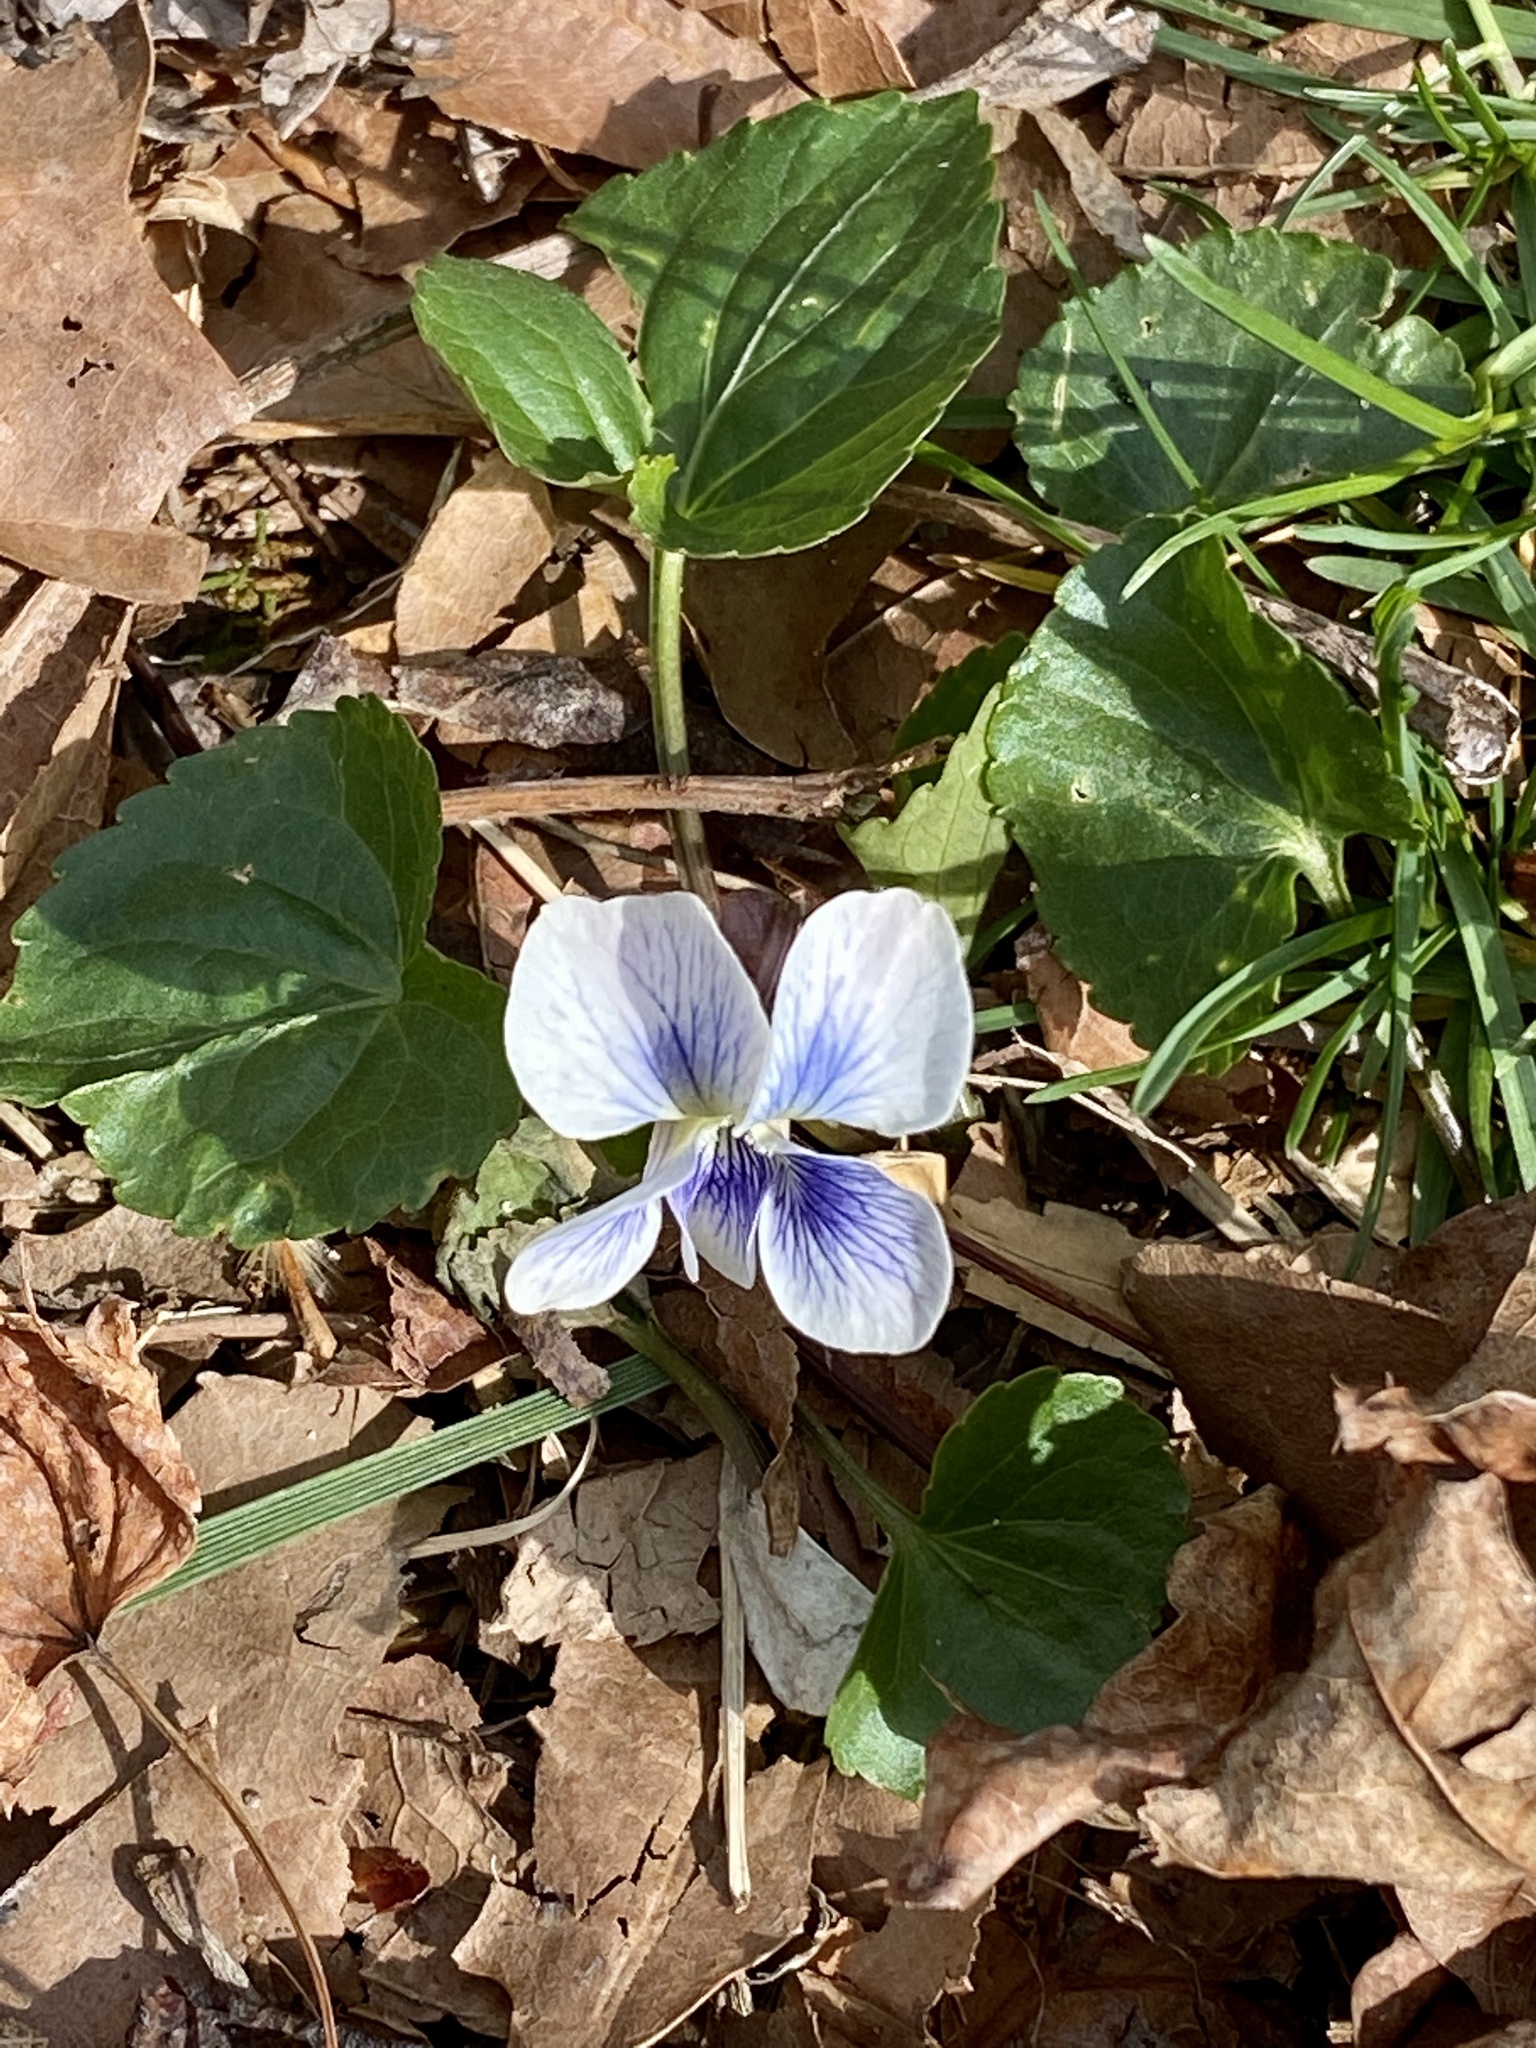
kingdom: Plantae
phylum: Tracheophyta
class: Magnoliopsida
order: Malpighiales
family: Violaceae
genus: Viola
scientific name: Viola sororia
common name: Dooryard violet
